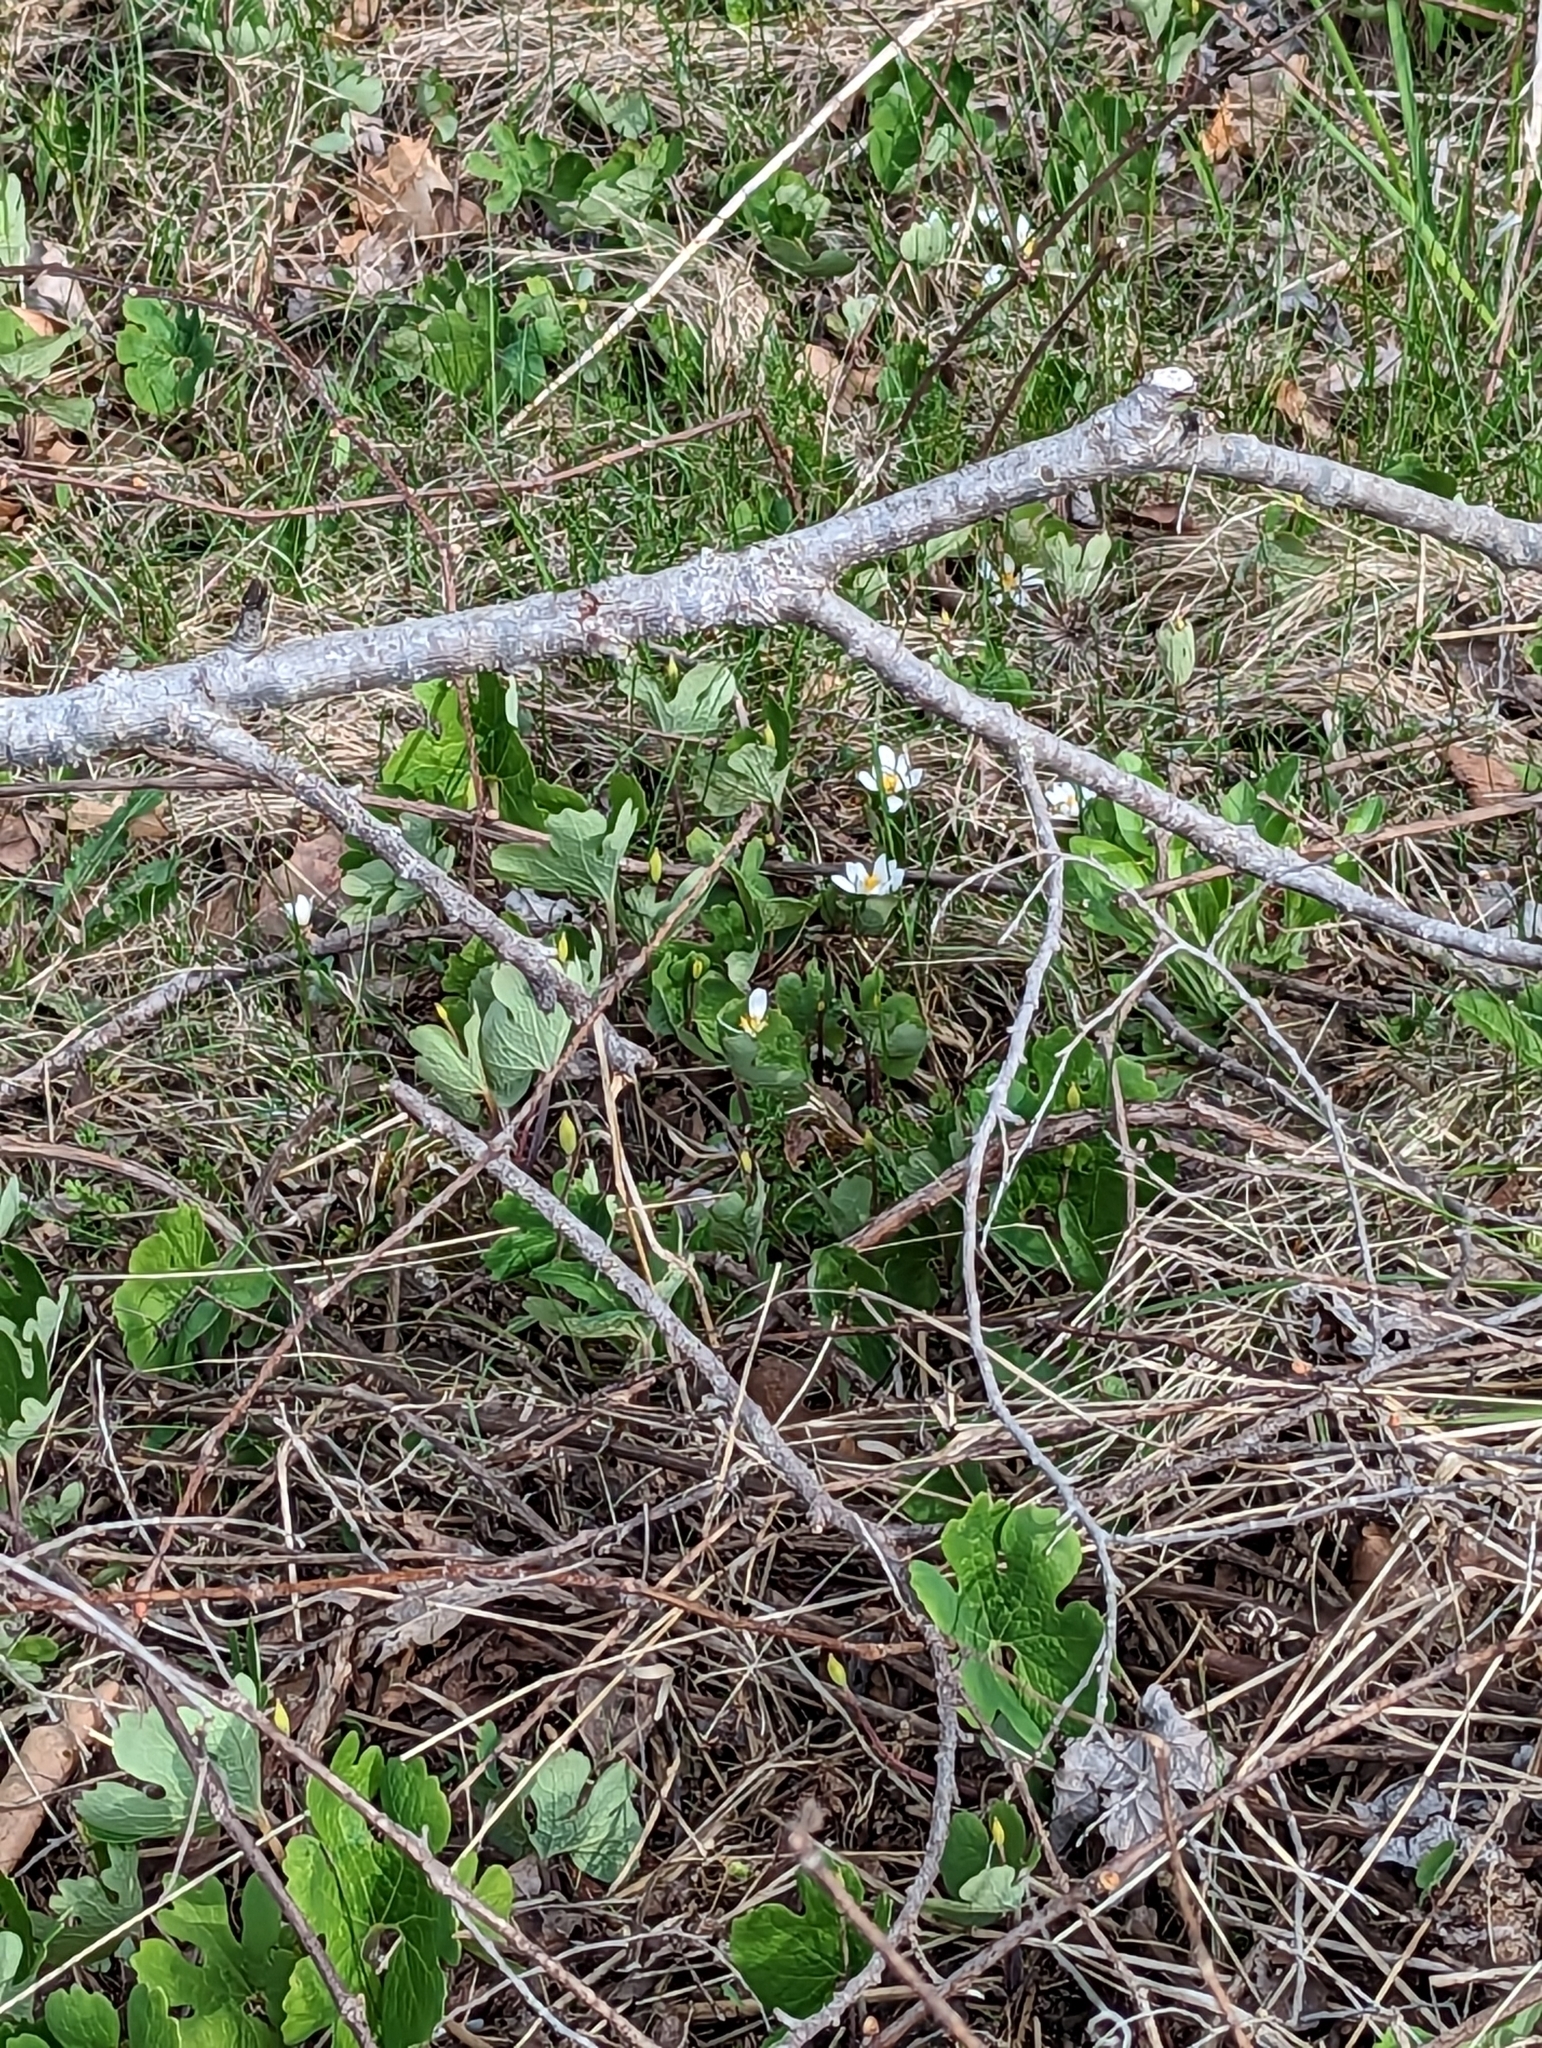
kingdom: Plantae
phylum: Tracheophyta
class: Magnoliopsida
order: Ranunculales
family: Papaveraceae
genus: Sanguinaria
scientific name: Sanguinaria canadensis
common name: Bloodroot
